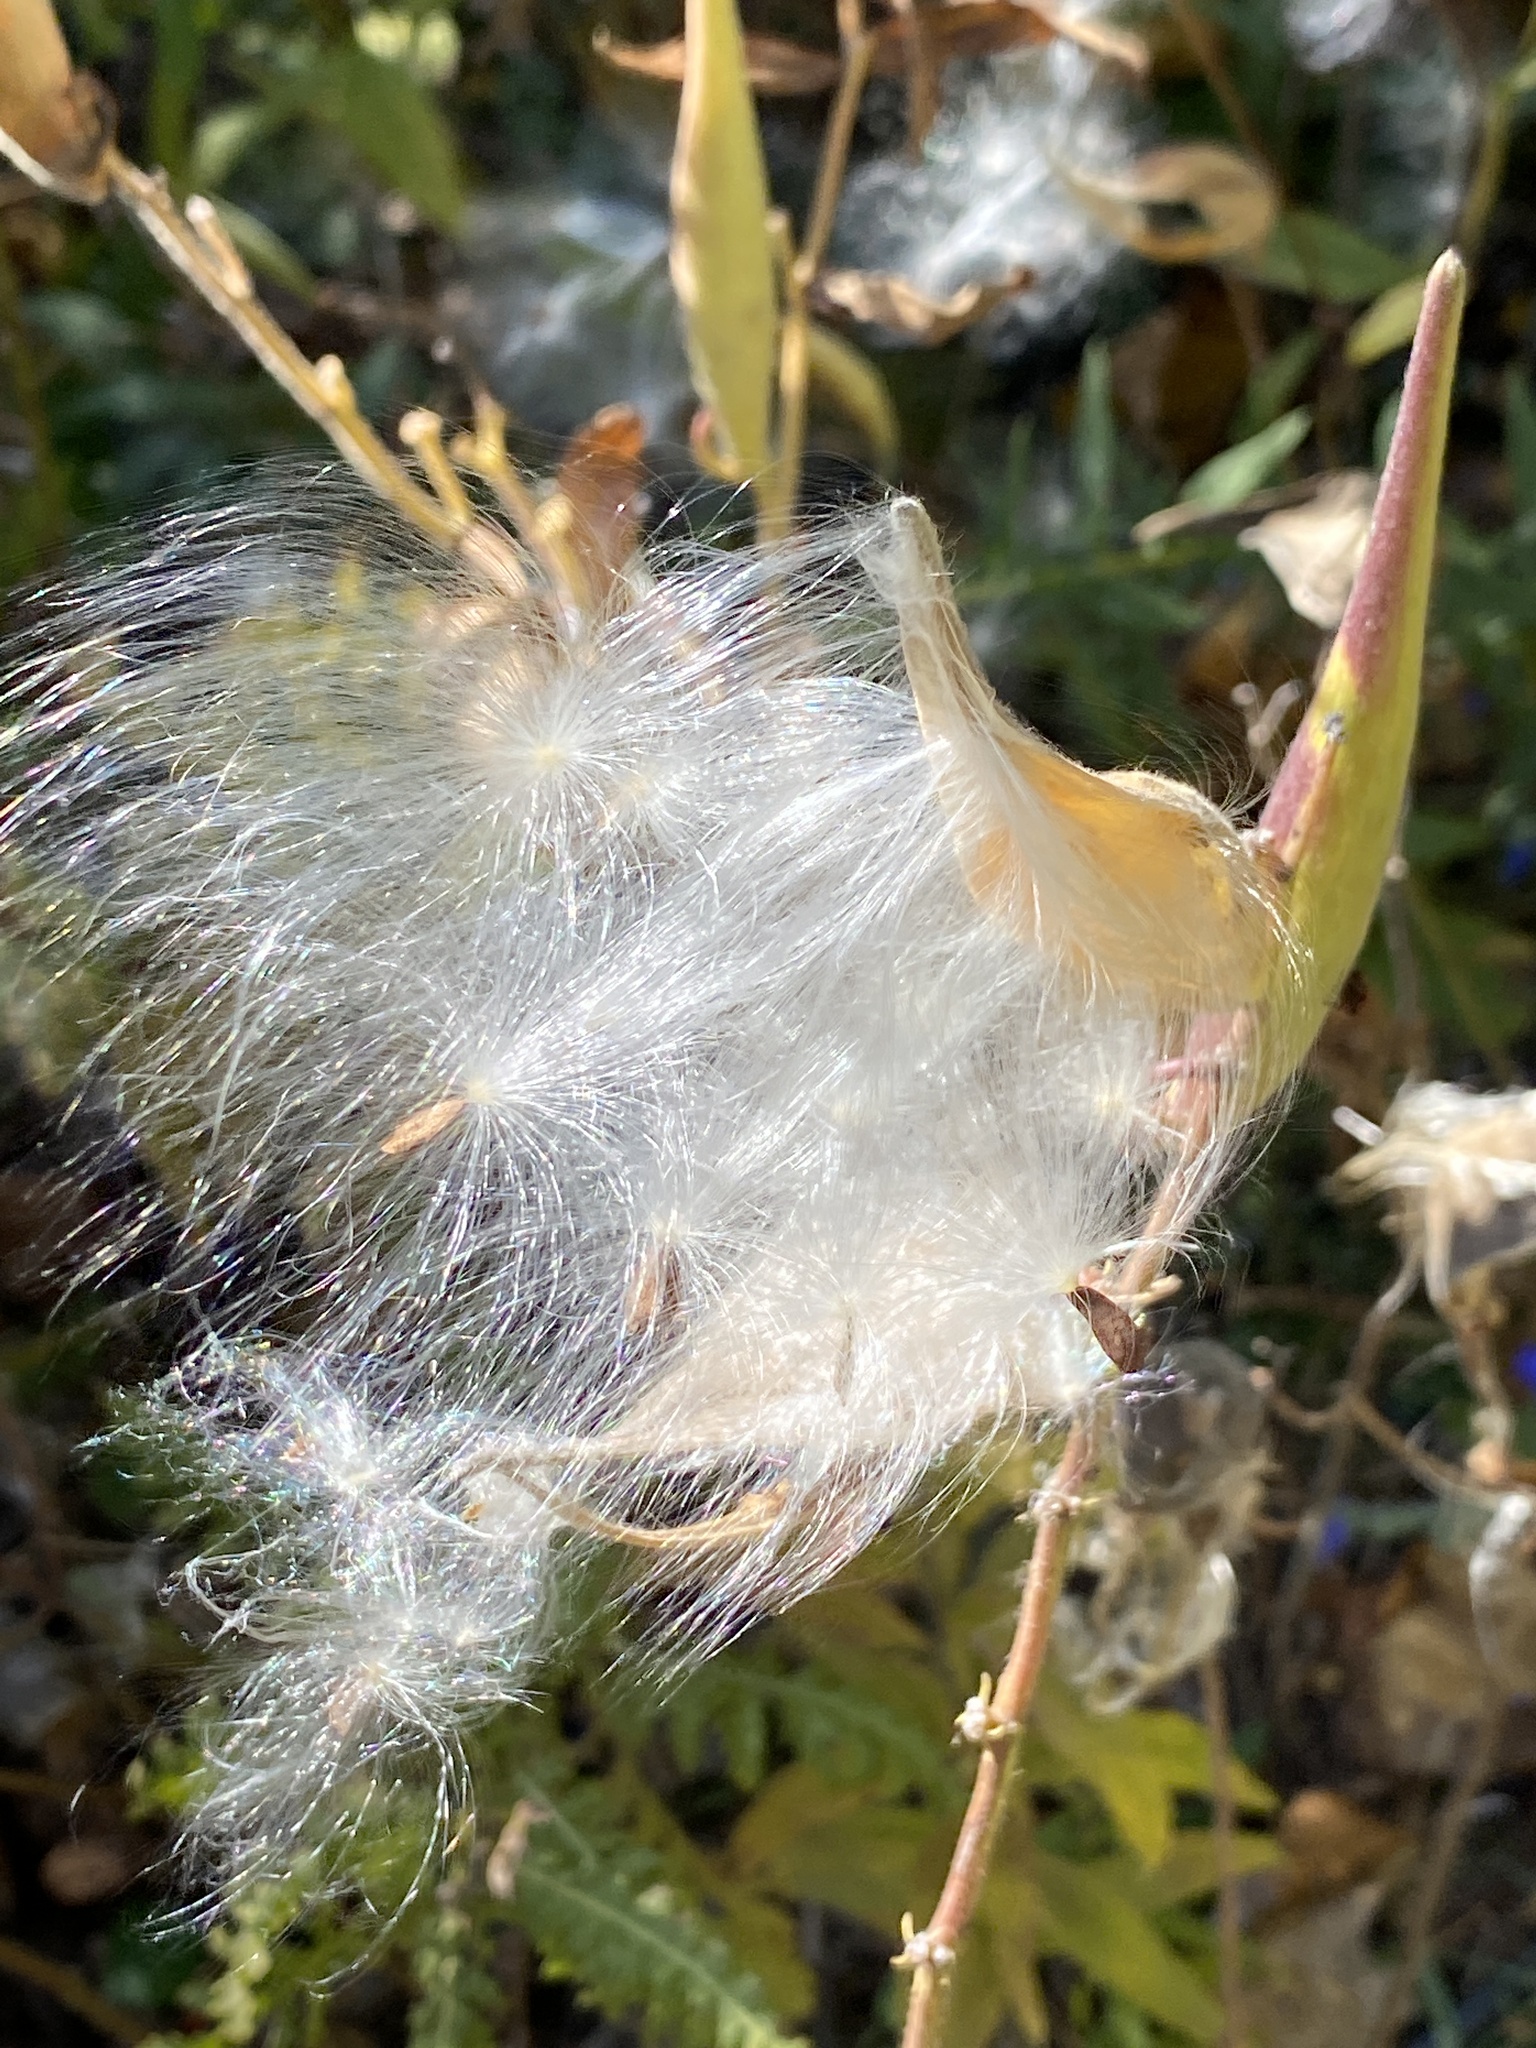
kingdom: Plantae
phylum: Tracheophyta
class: Magnoliopsida
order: Gentianales
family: Apocynaceae
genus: Asclepias
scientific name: Asclepias tuberosa
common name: Butterfly milkweed
